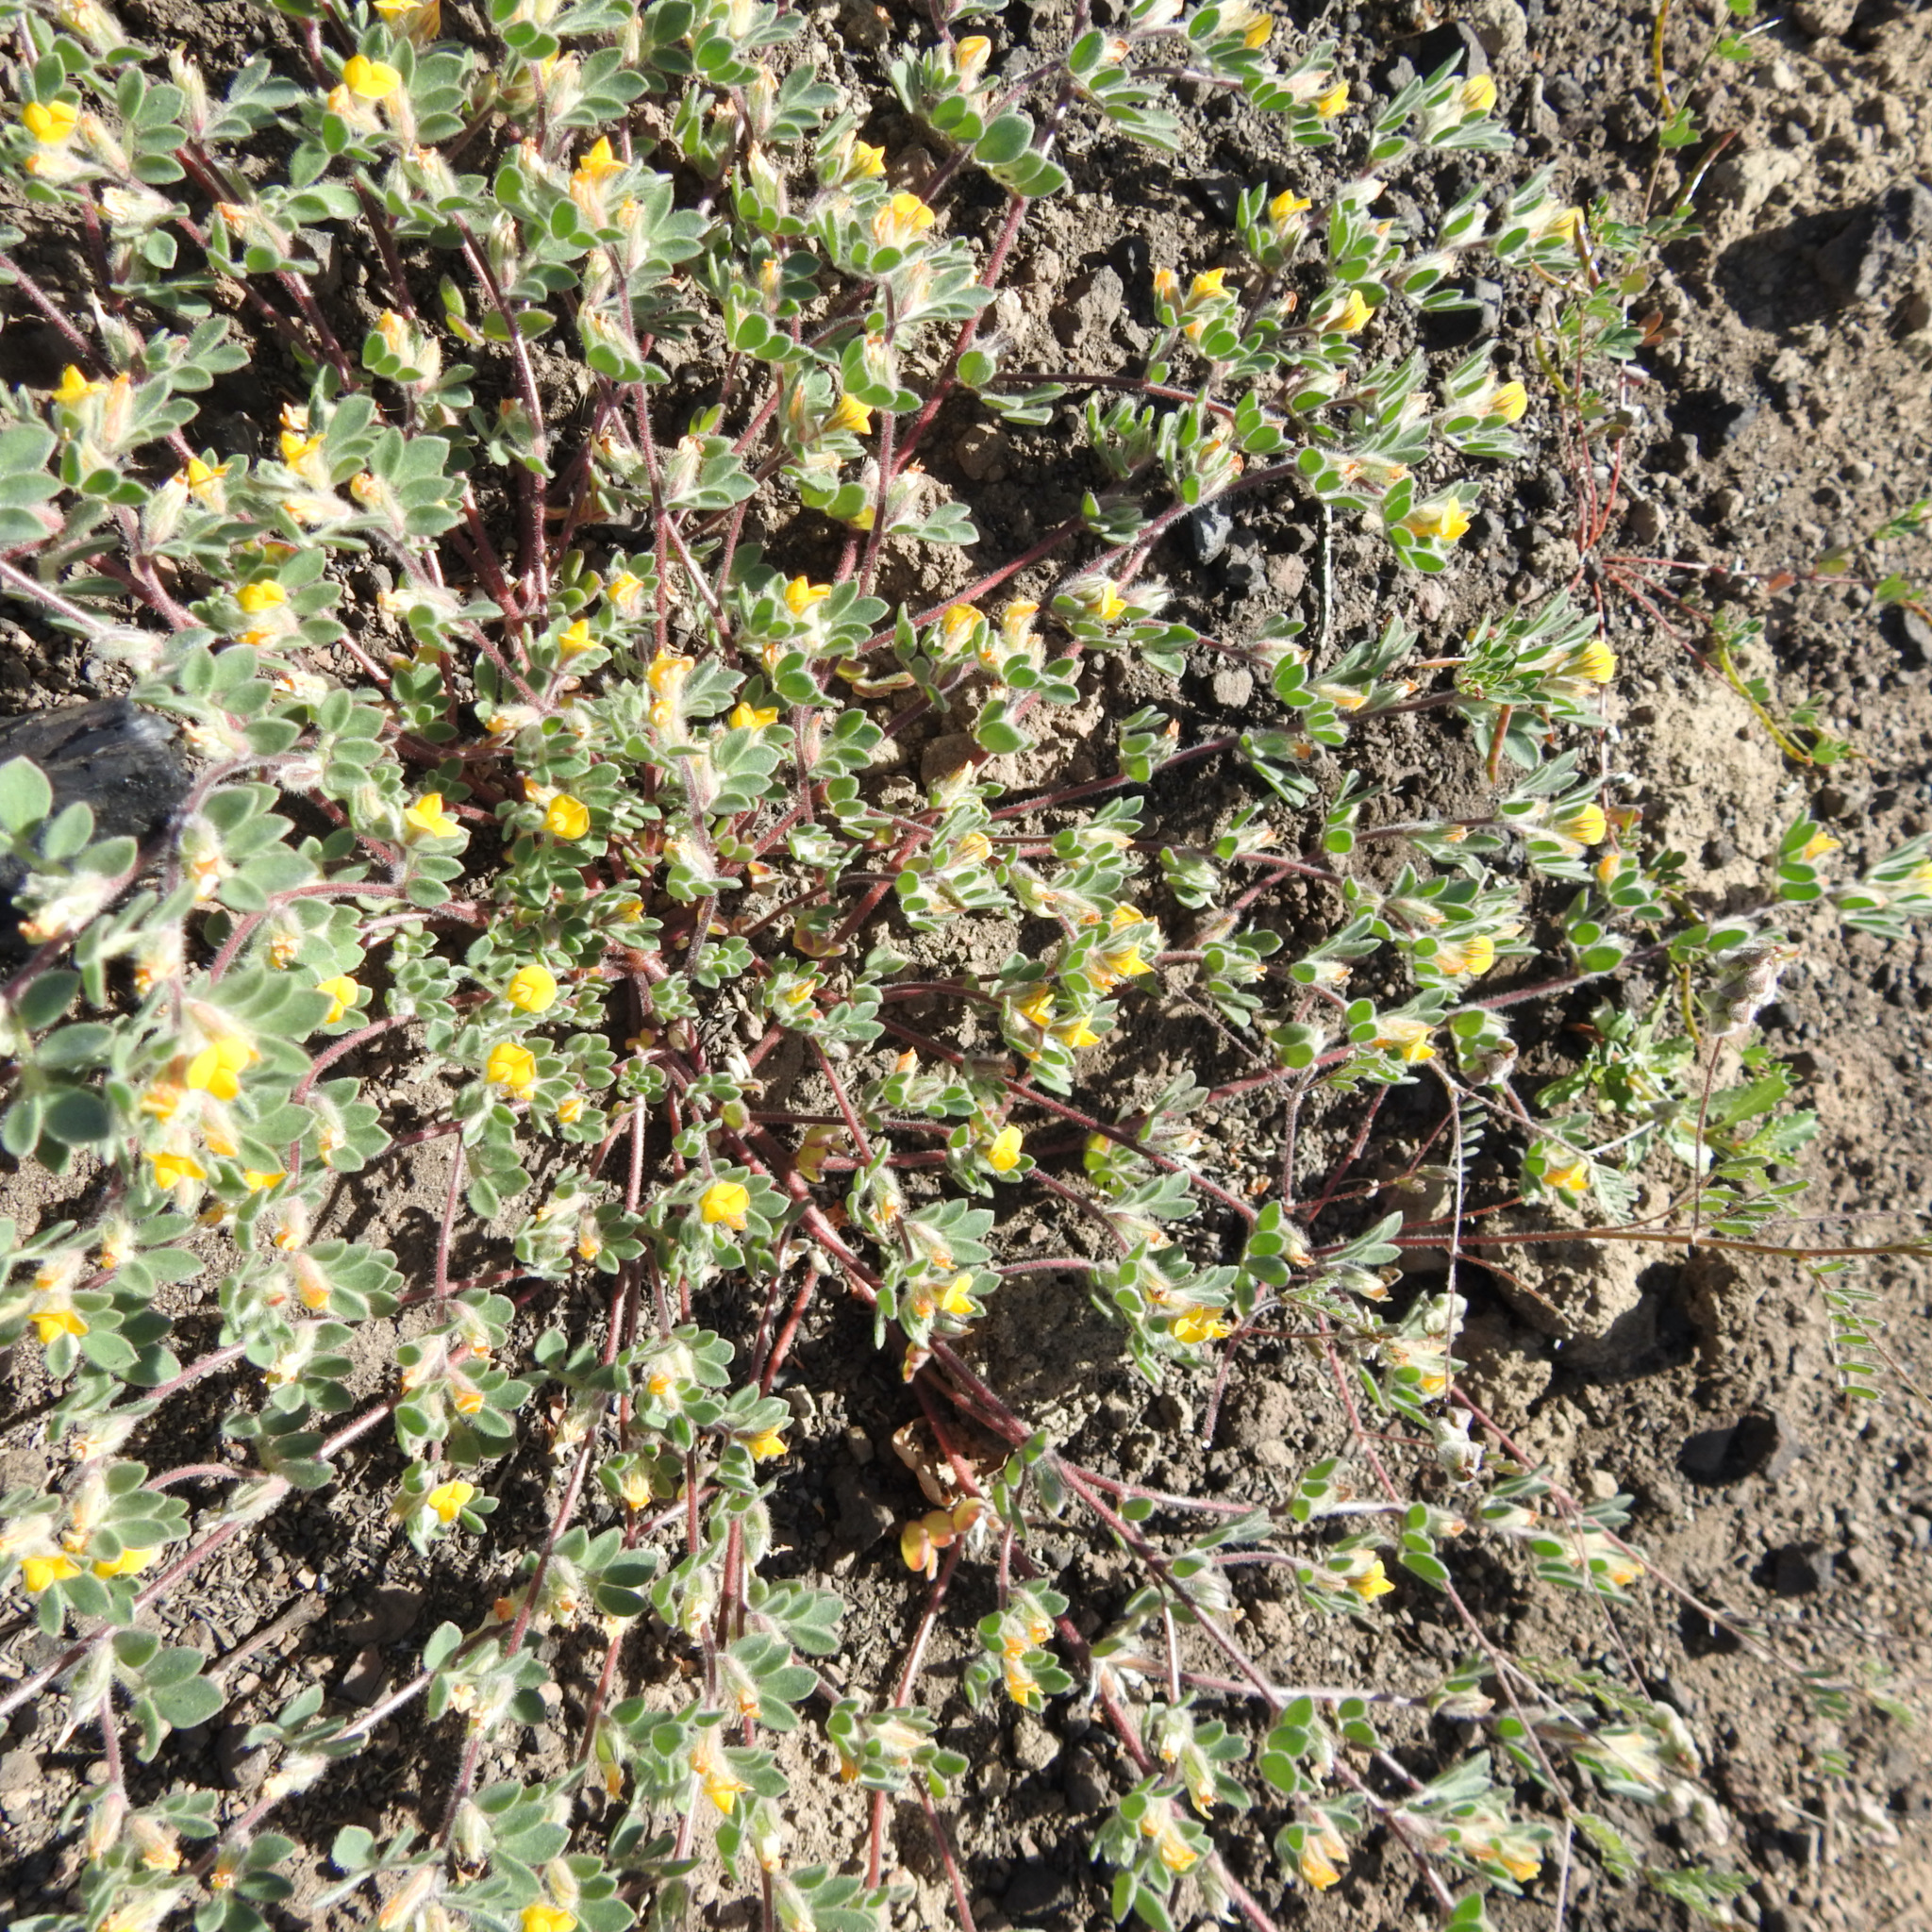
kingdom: Plantae
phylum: Tracheophyta
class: Magnoliopsida
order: Fabales
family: Fabaceae
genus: Acmispon
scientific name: Acmispon brachycarpus
